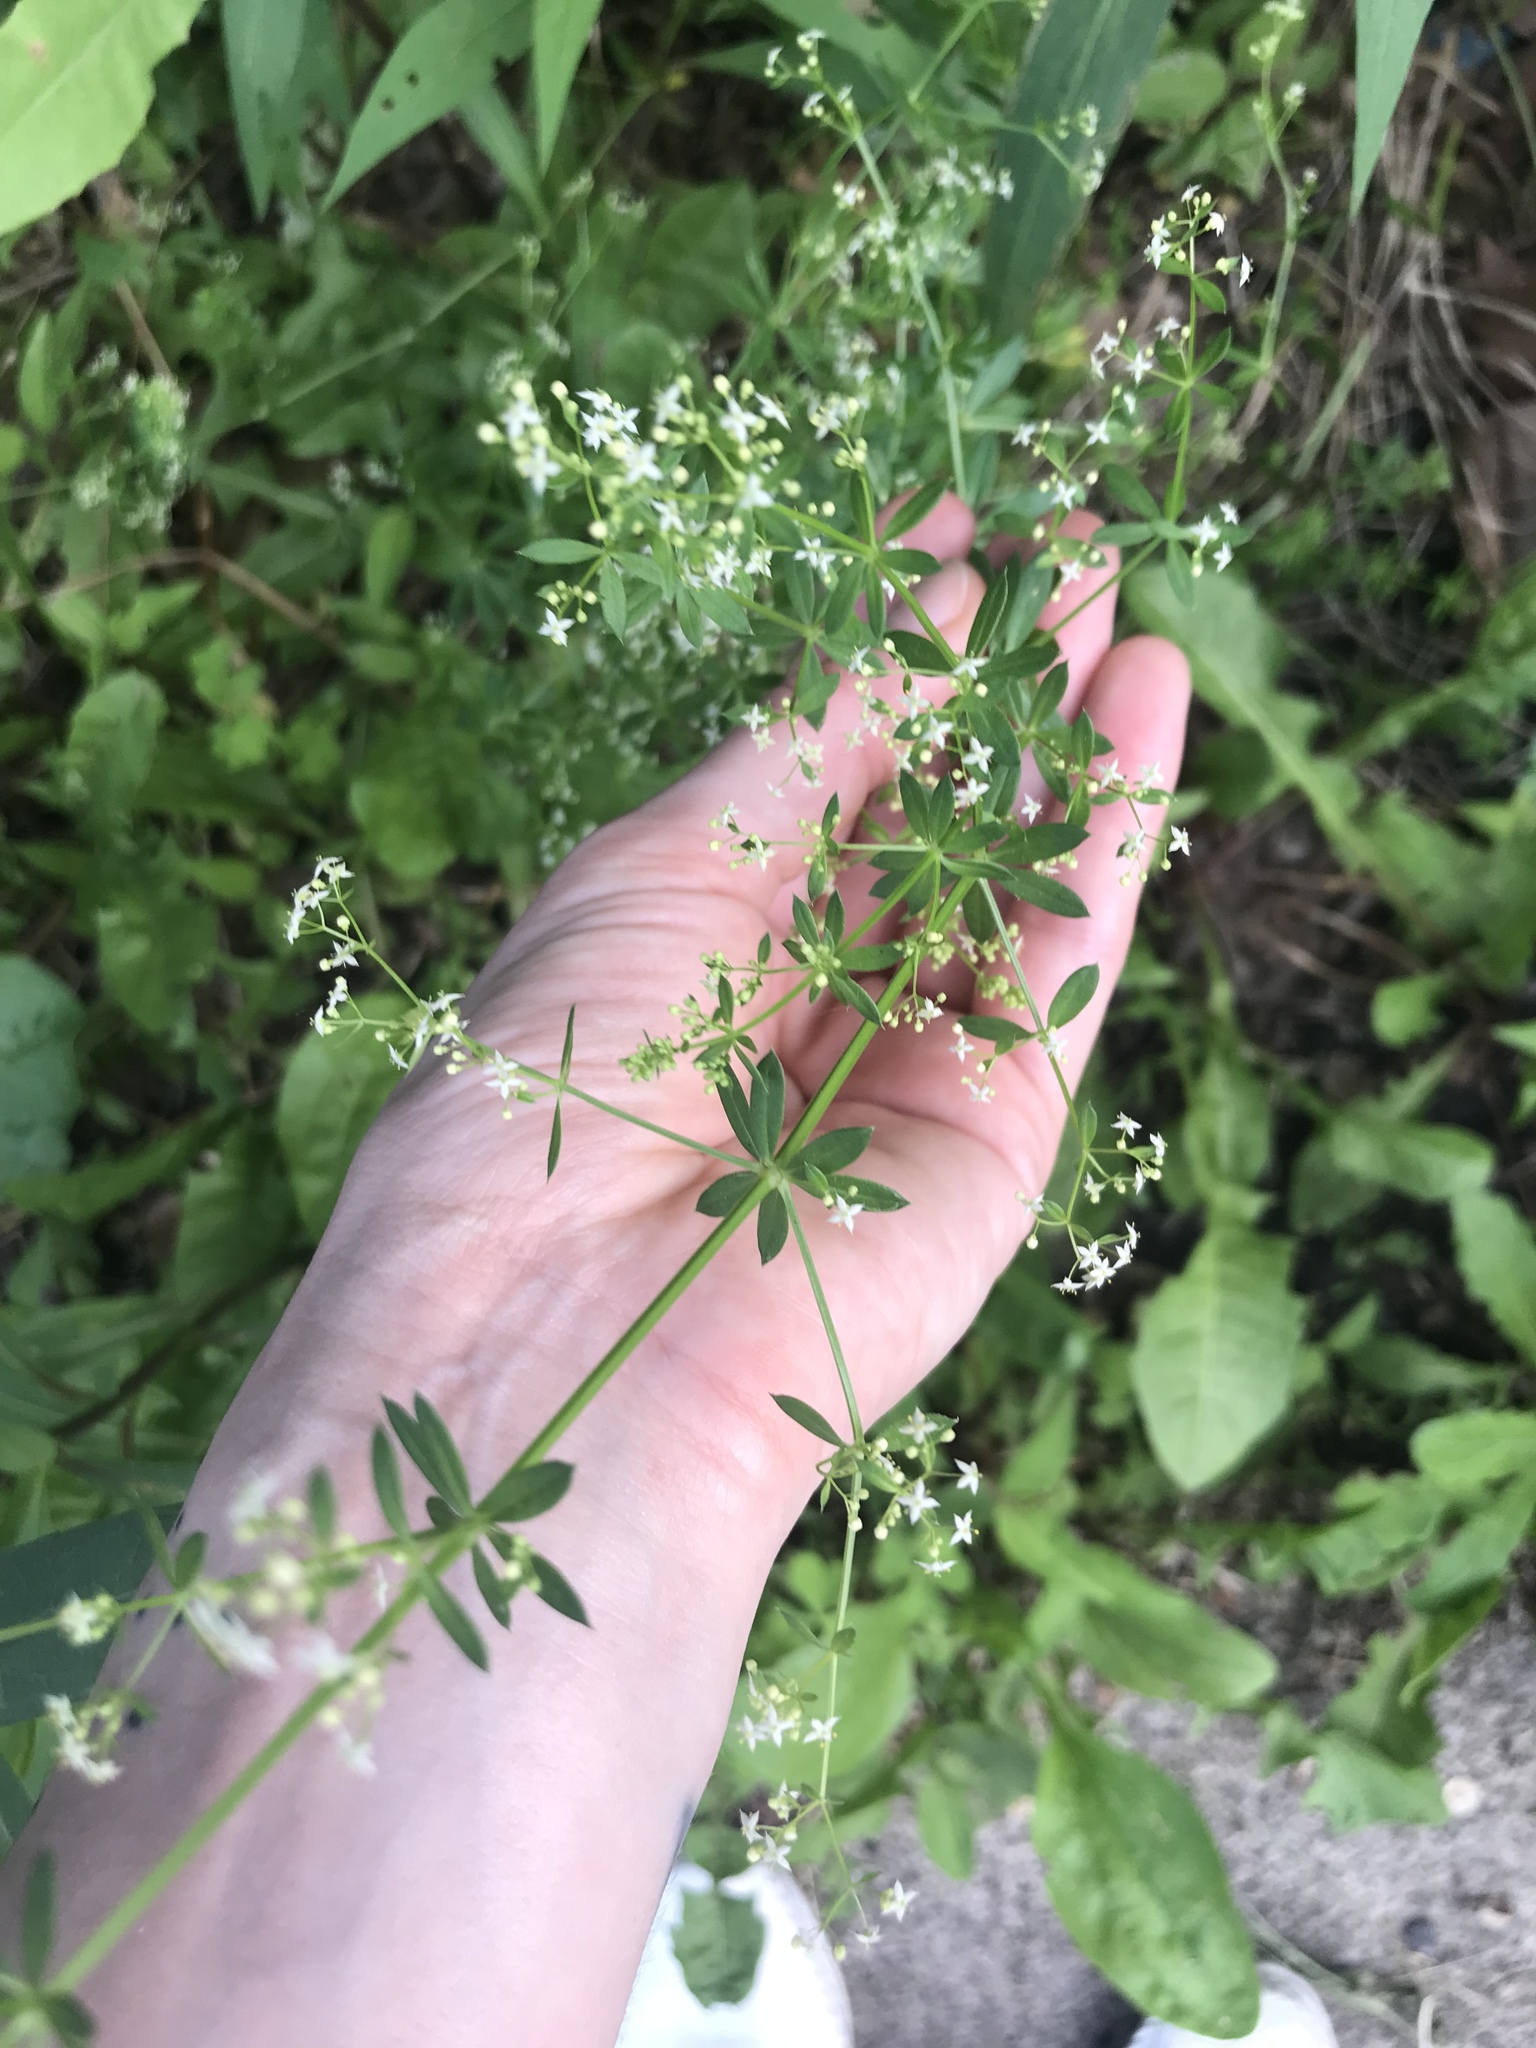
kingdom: Plantae
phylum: Tracheophyta
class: Magnoliopsida
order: Gentianales
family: Rubiaceae
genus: Galium
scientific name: Galium mollugo
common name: Hedge bedstraw
